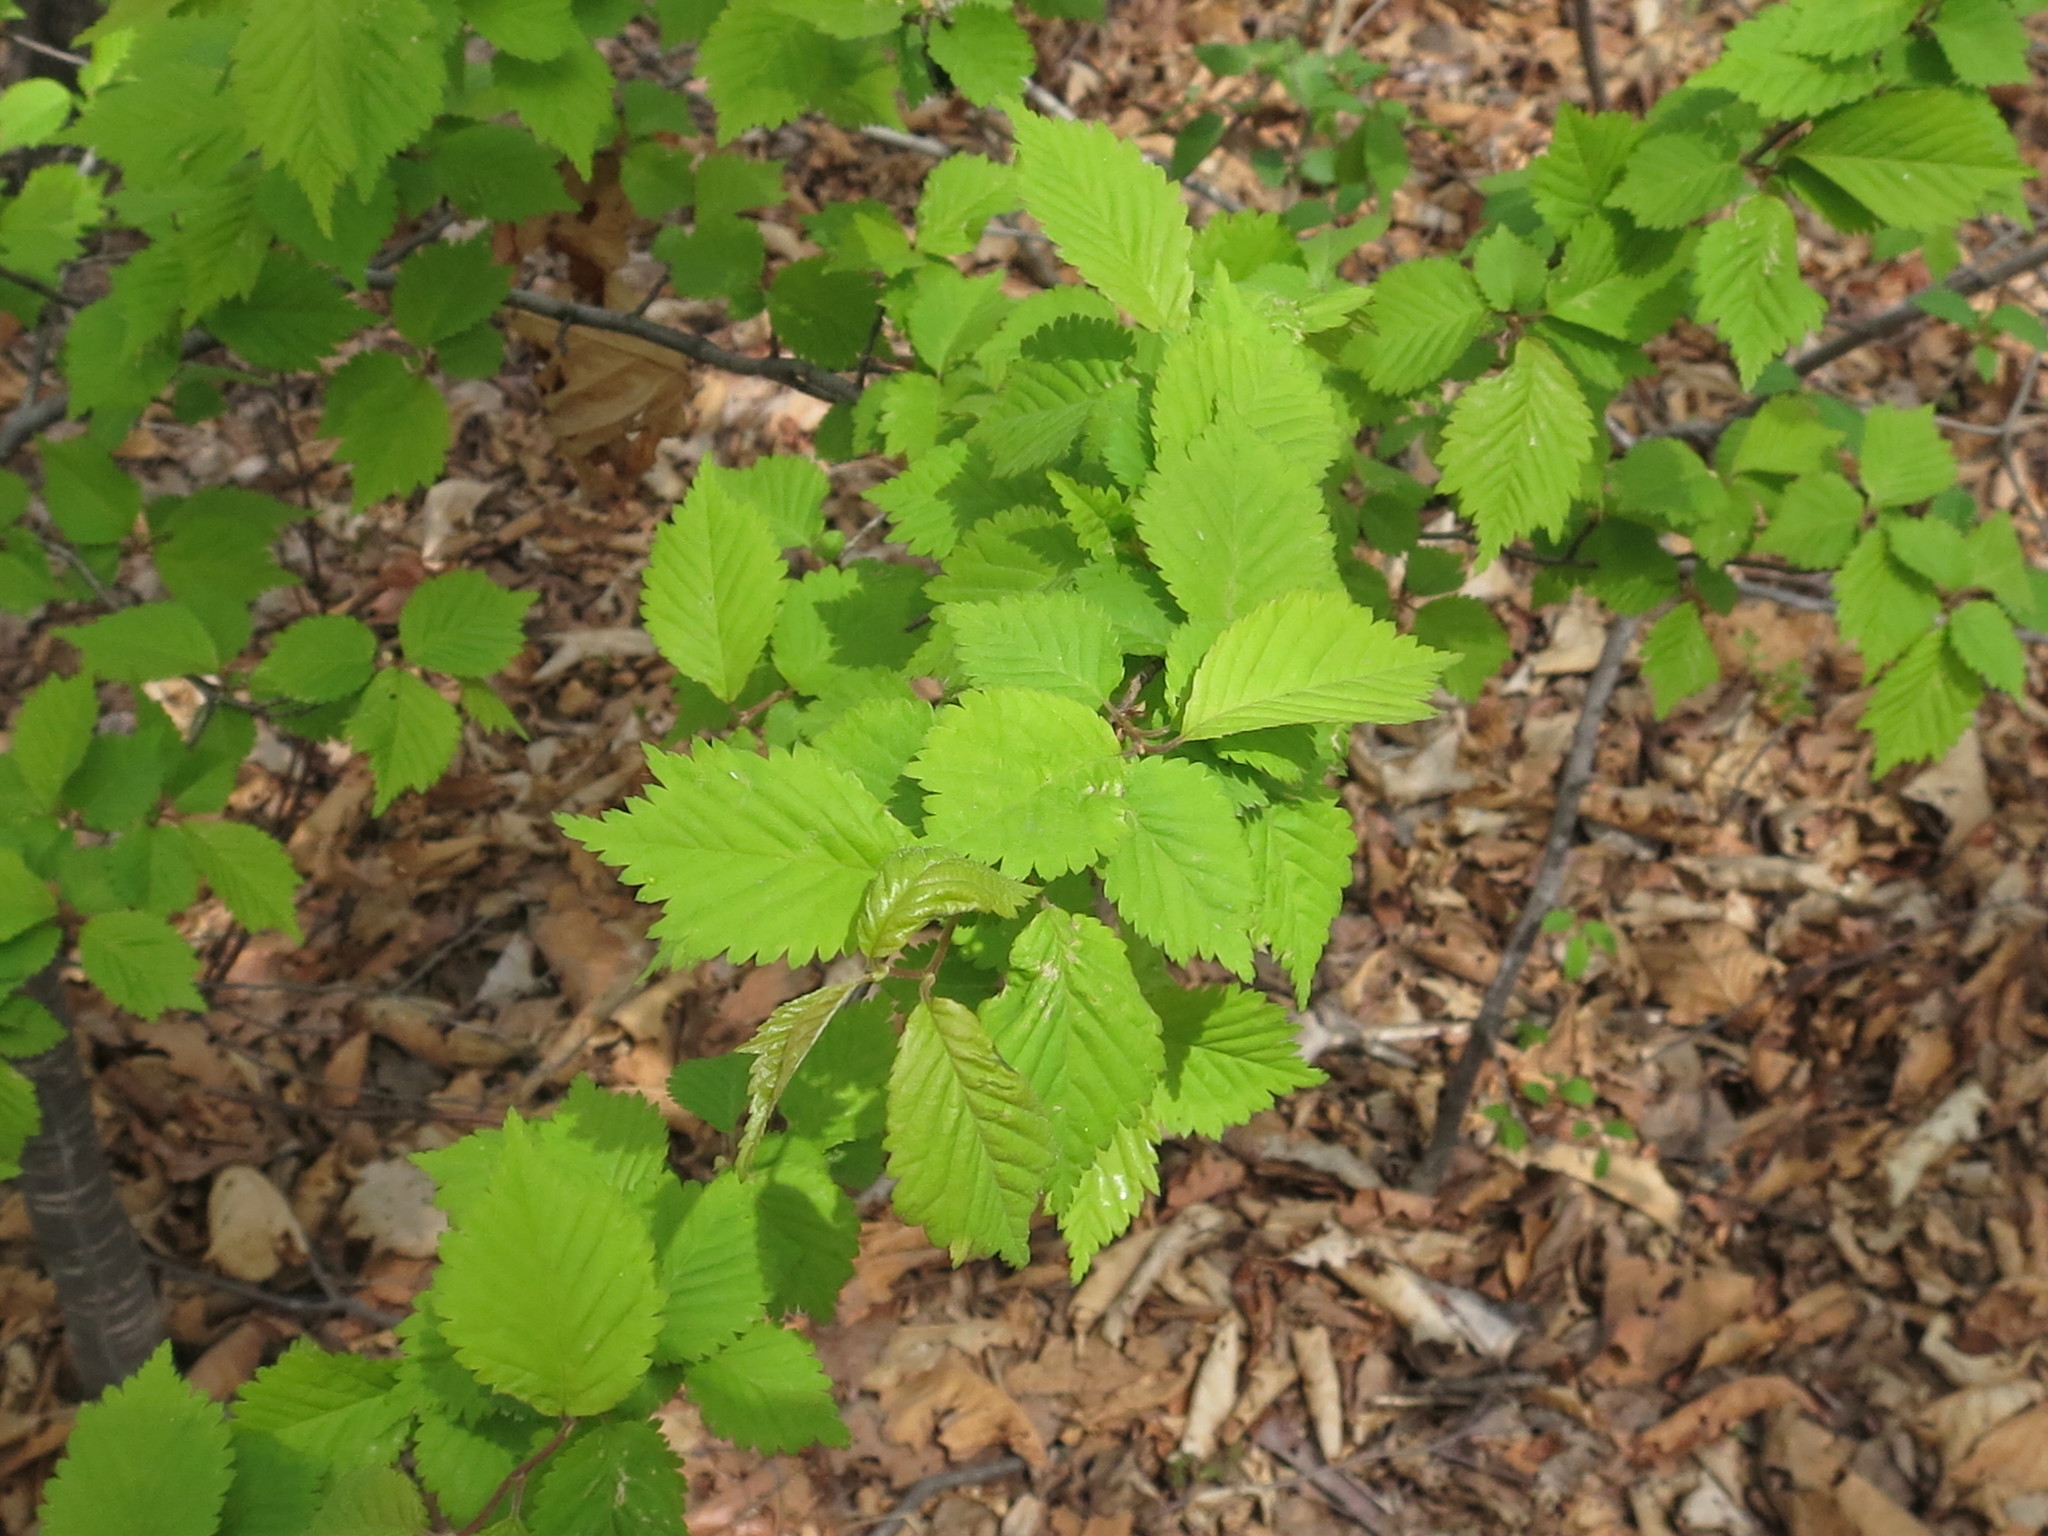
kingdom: Plantae
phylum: Tracheophyta
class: Magnoliopsida
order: Rosales
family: Rosaceae
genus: Prunus
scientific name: Prunus maximowiczii
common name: Korean cherry
